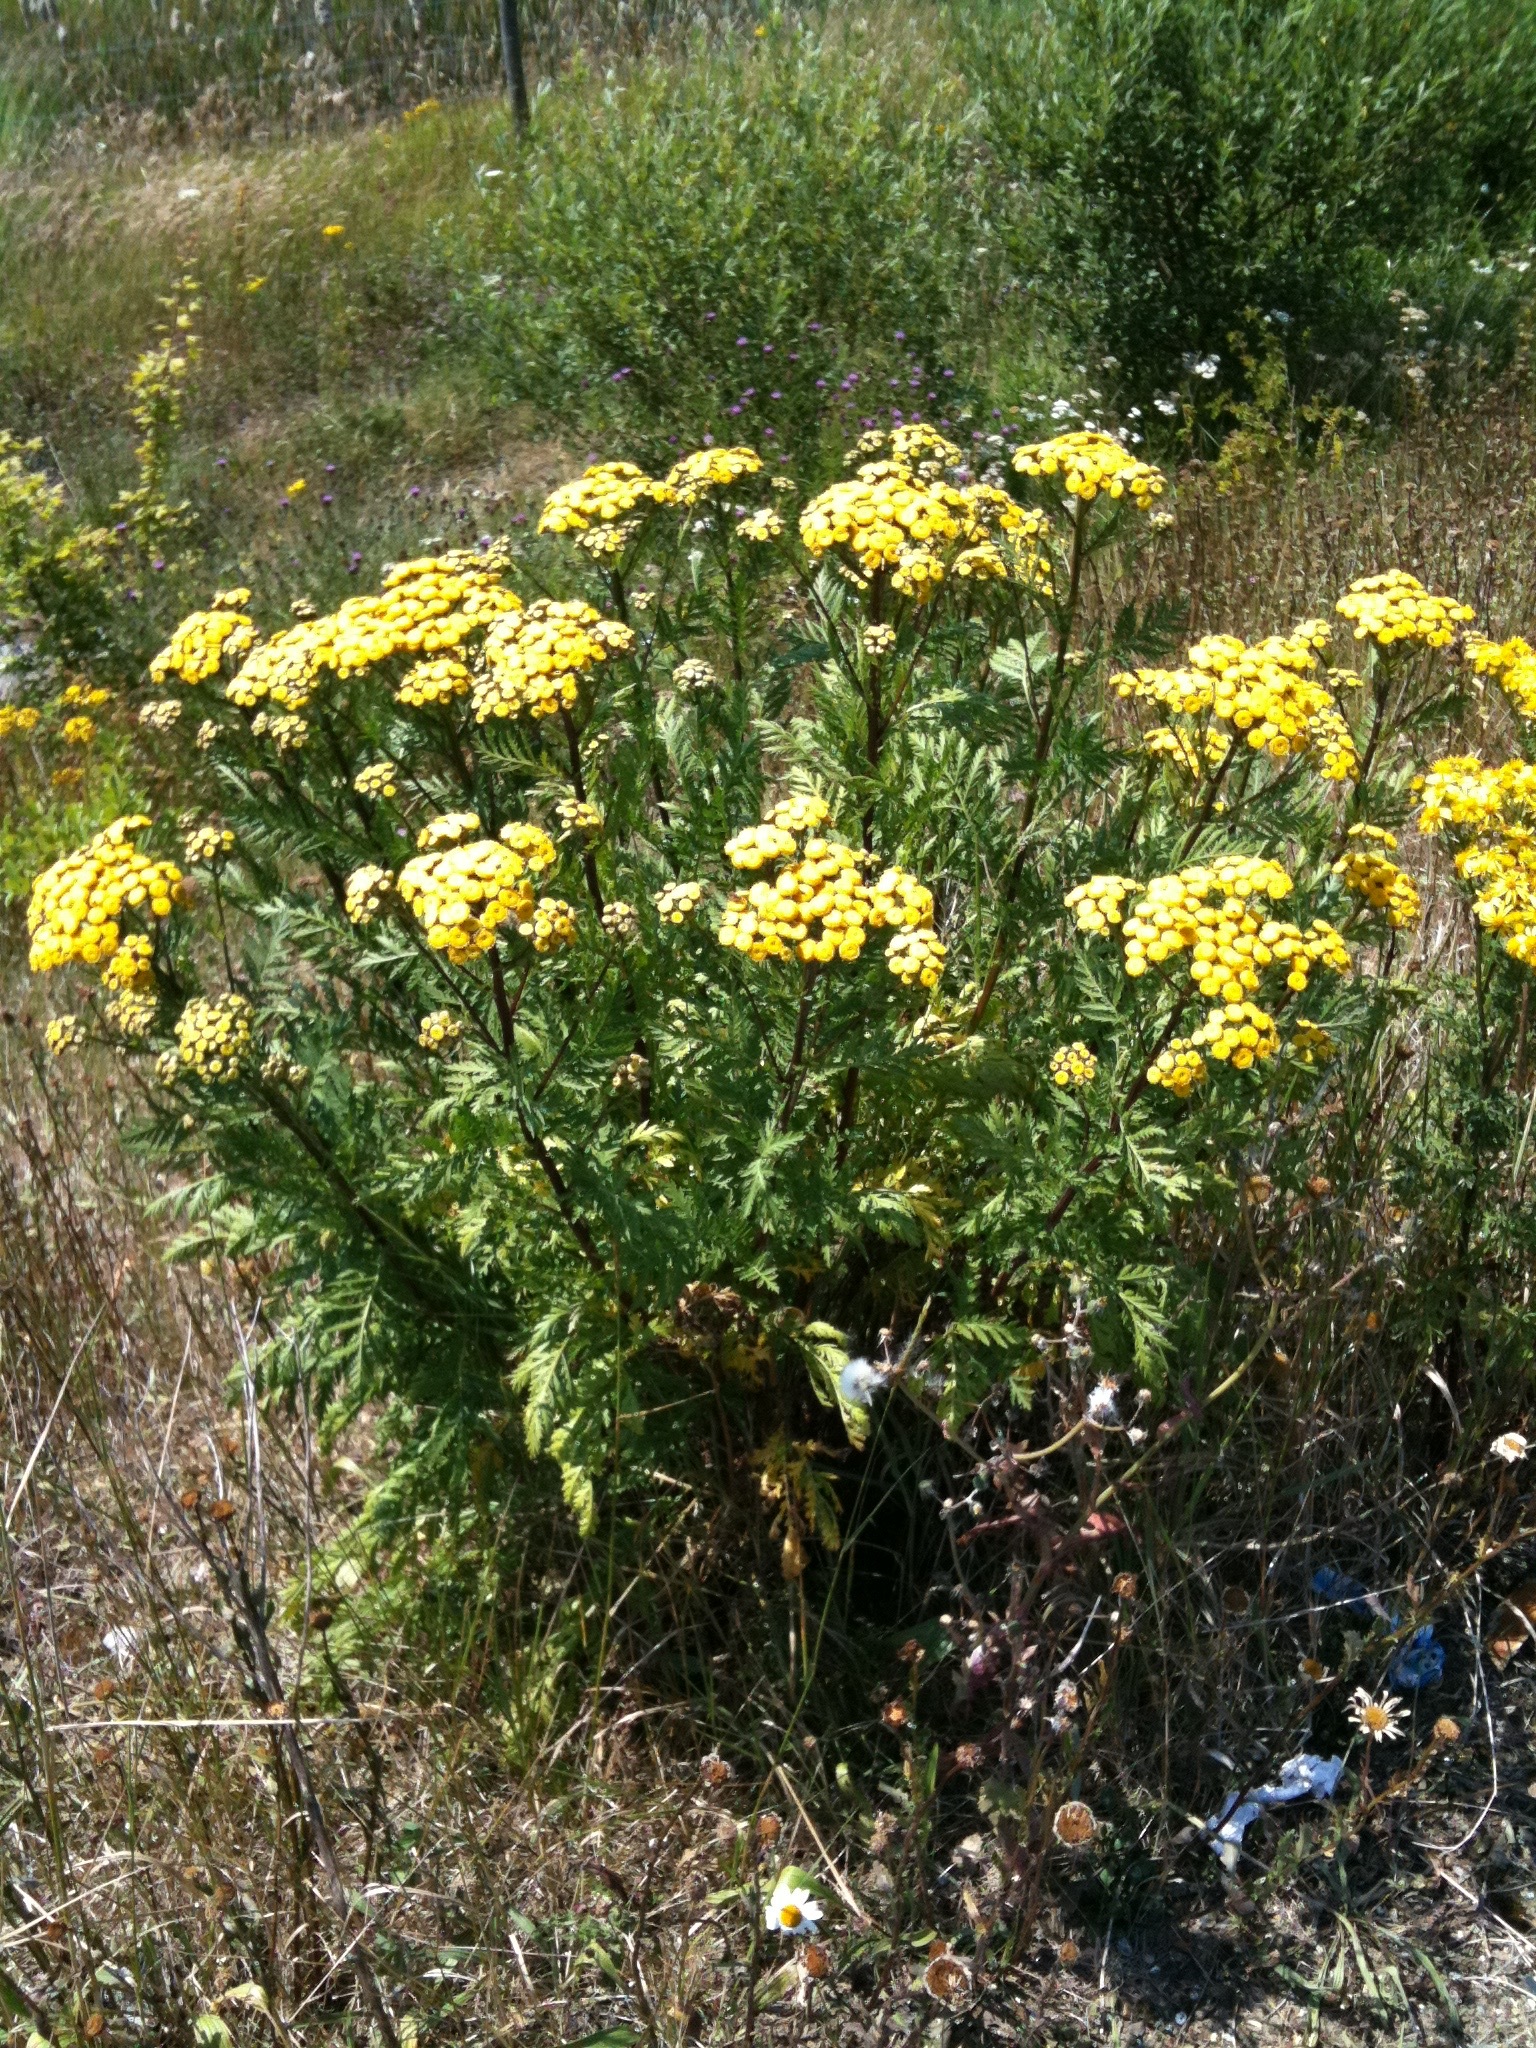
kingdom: Plantae
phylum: Tracheophyta
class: Magnoliopsida
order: Asterales
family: Asteraceae
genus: Tanacetum
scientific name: Tanacetum vulgare
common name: Common tansy
